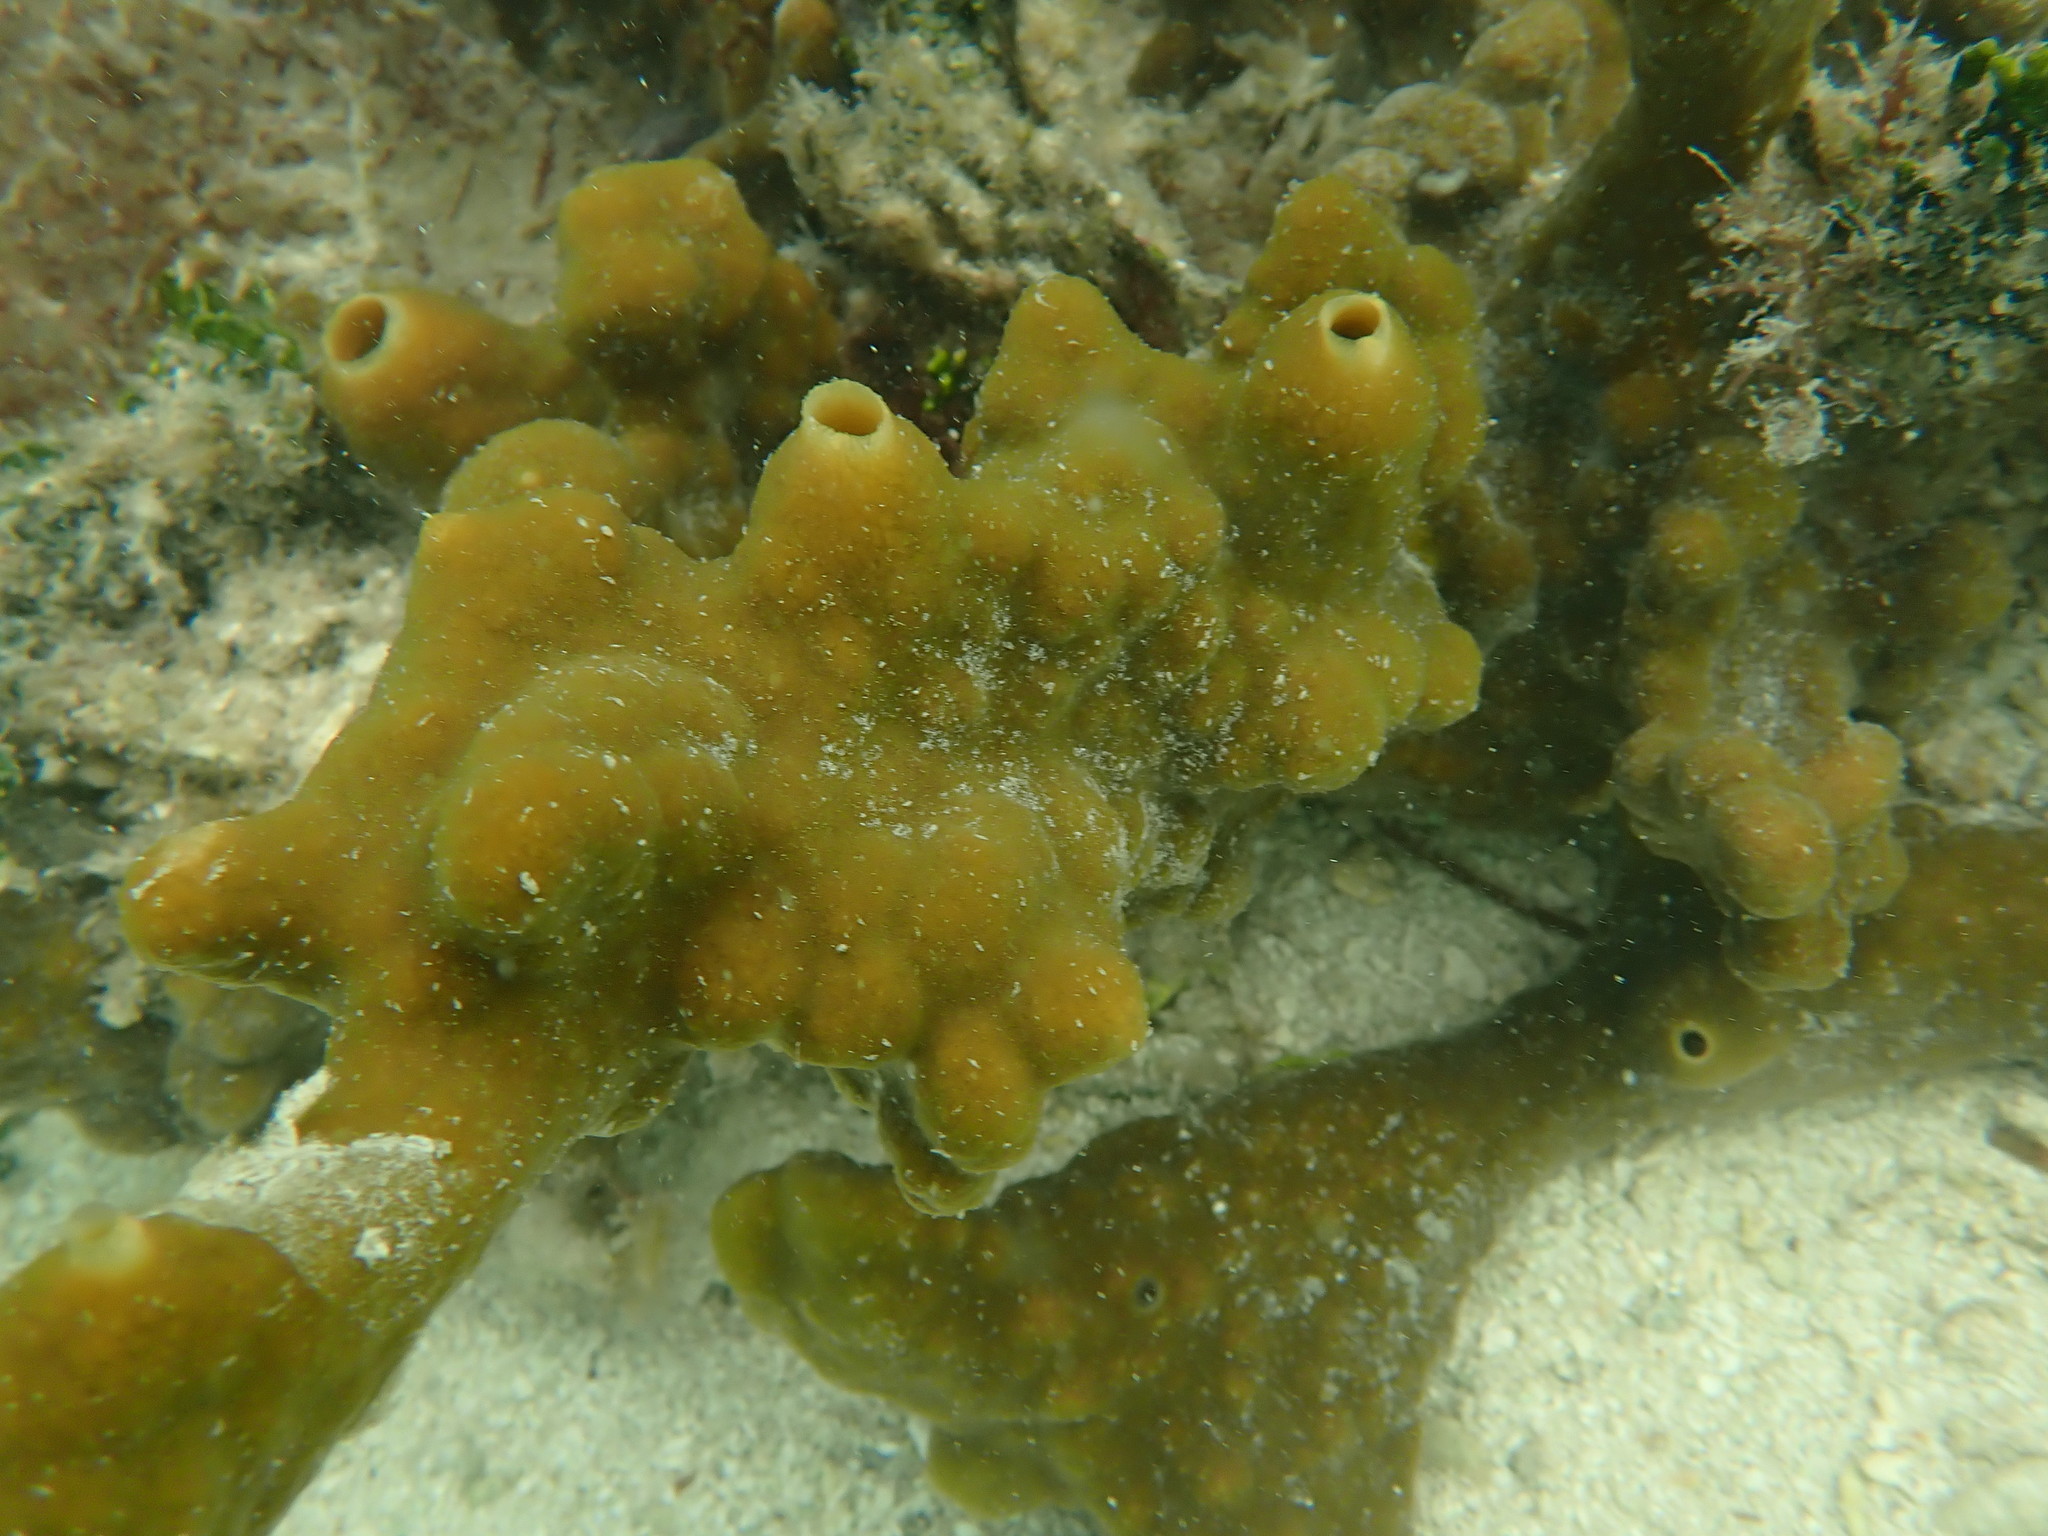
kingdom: Animalia
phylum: Porifera
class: Demospongiae
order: Clionaida
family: Clionaidae
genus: Cliona
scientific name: Cliona varians
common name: Brown variable sponge
